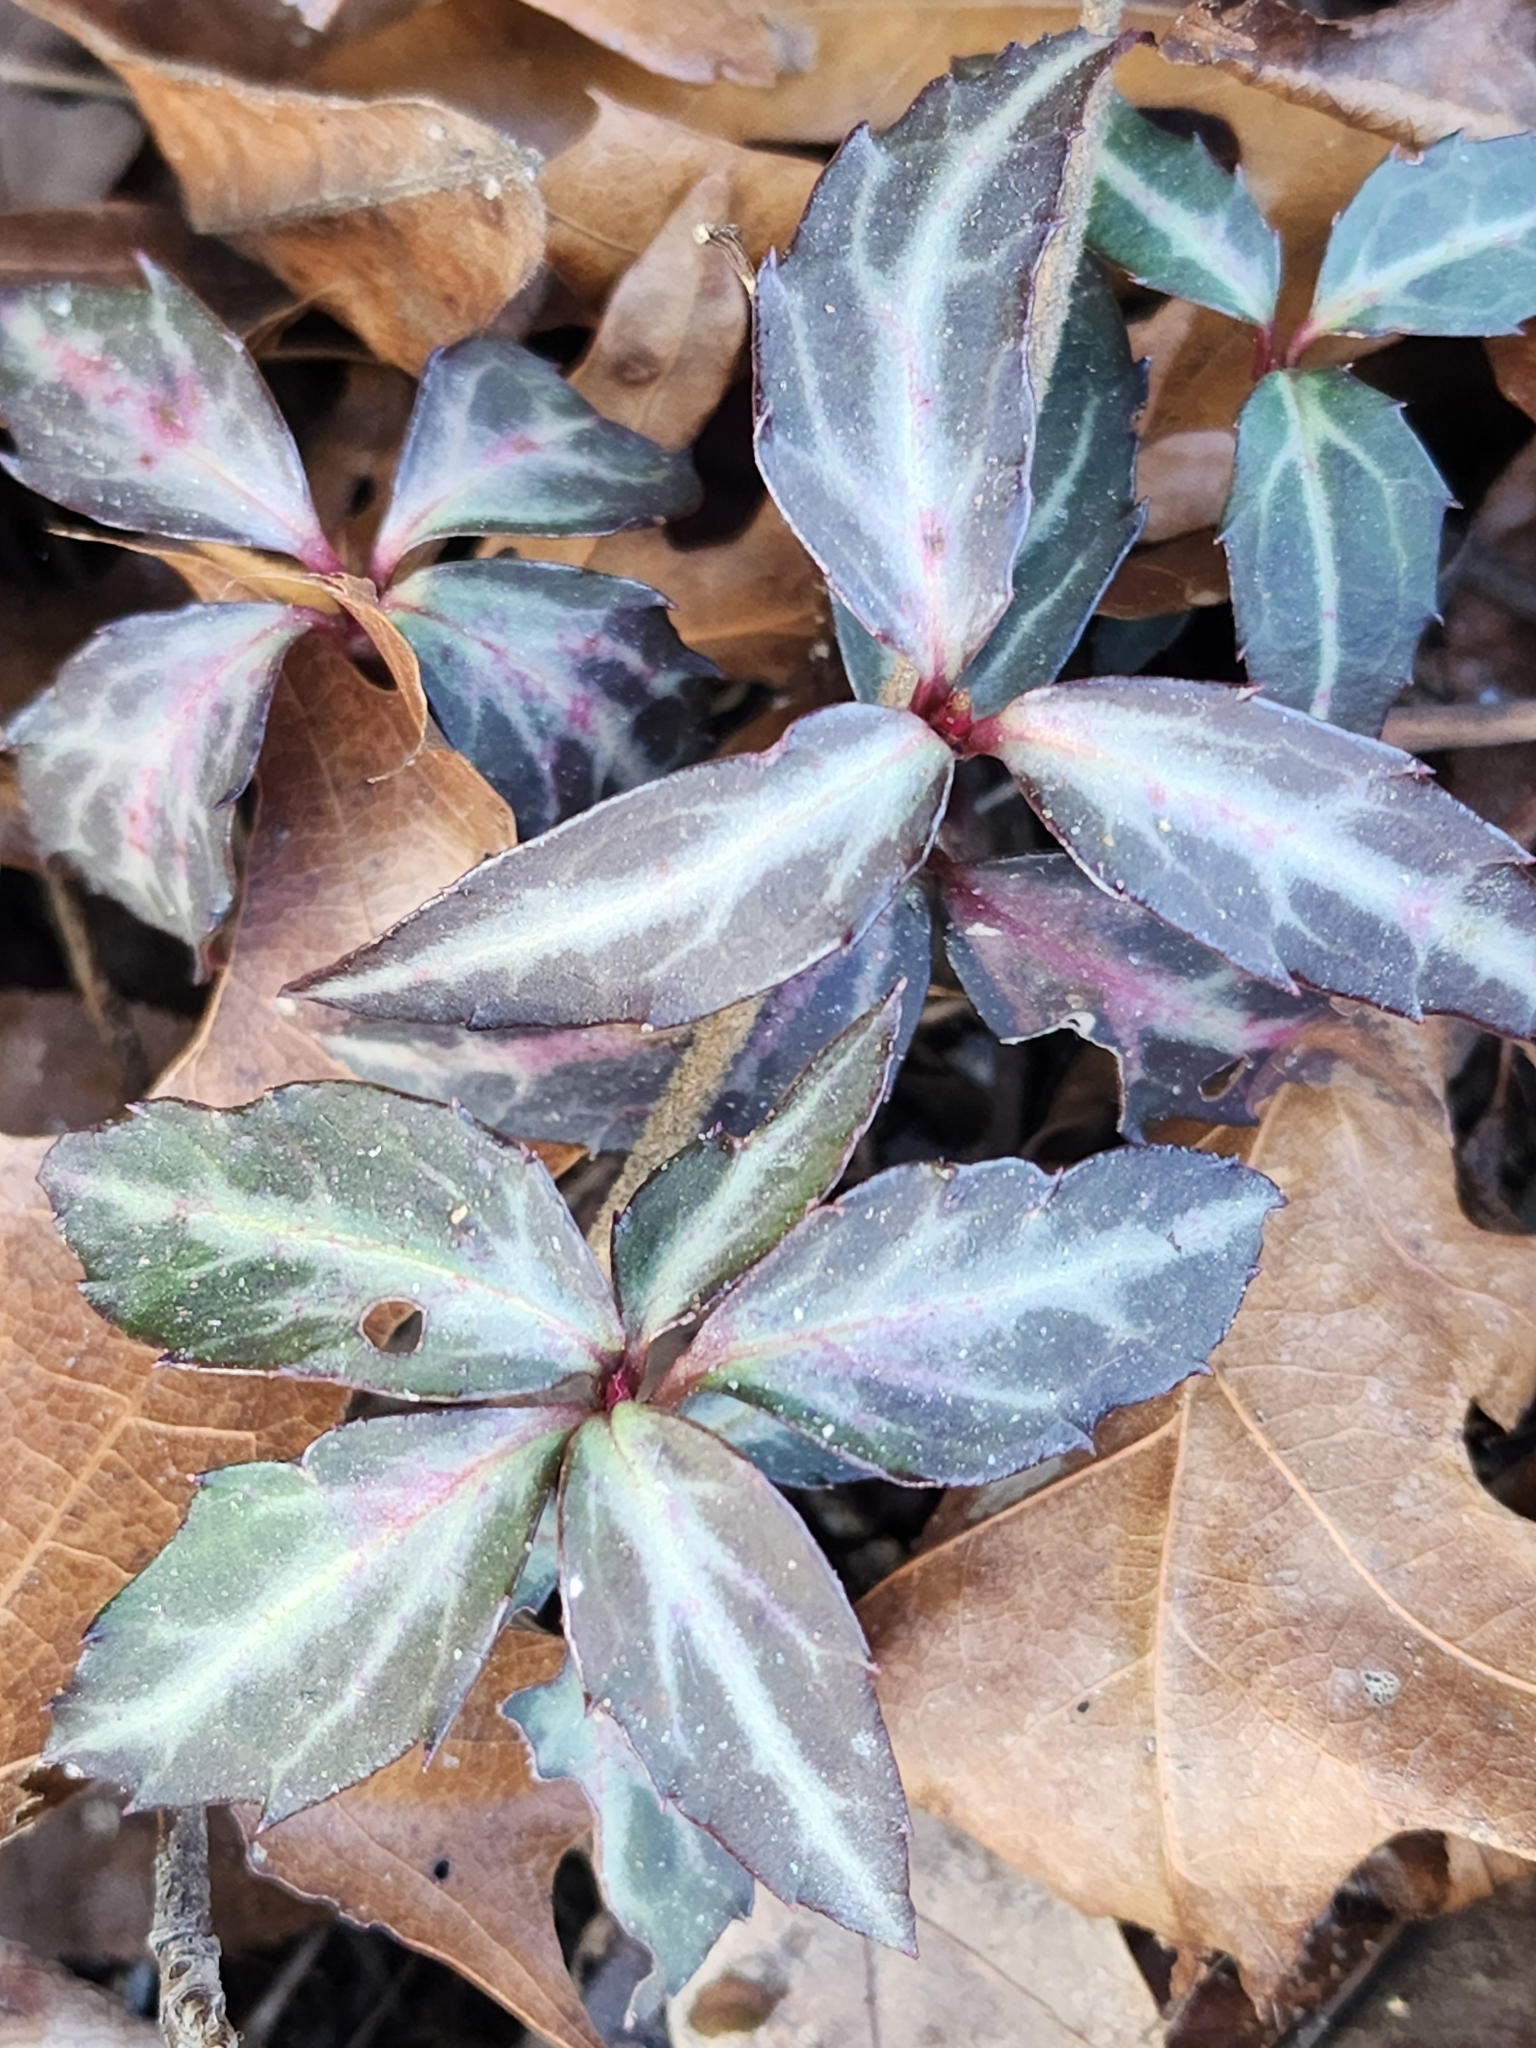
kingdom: Plantae
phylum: Tracheophyta
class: Magnoliopsida
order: Ericales
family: Ericaceae
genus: Chimaphila
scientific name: Chimaphila maculata
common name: Spotted pipsissewa
